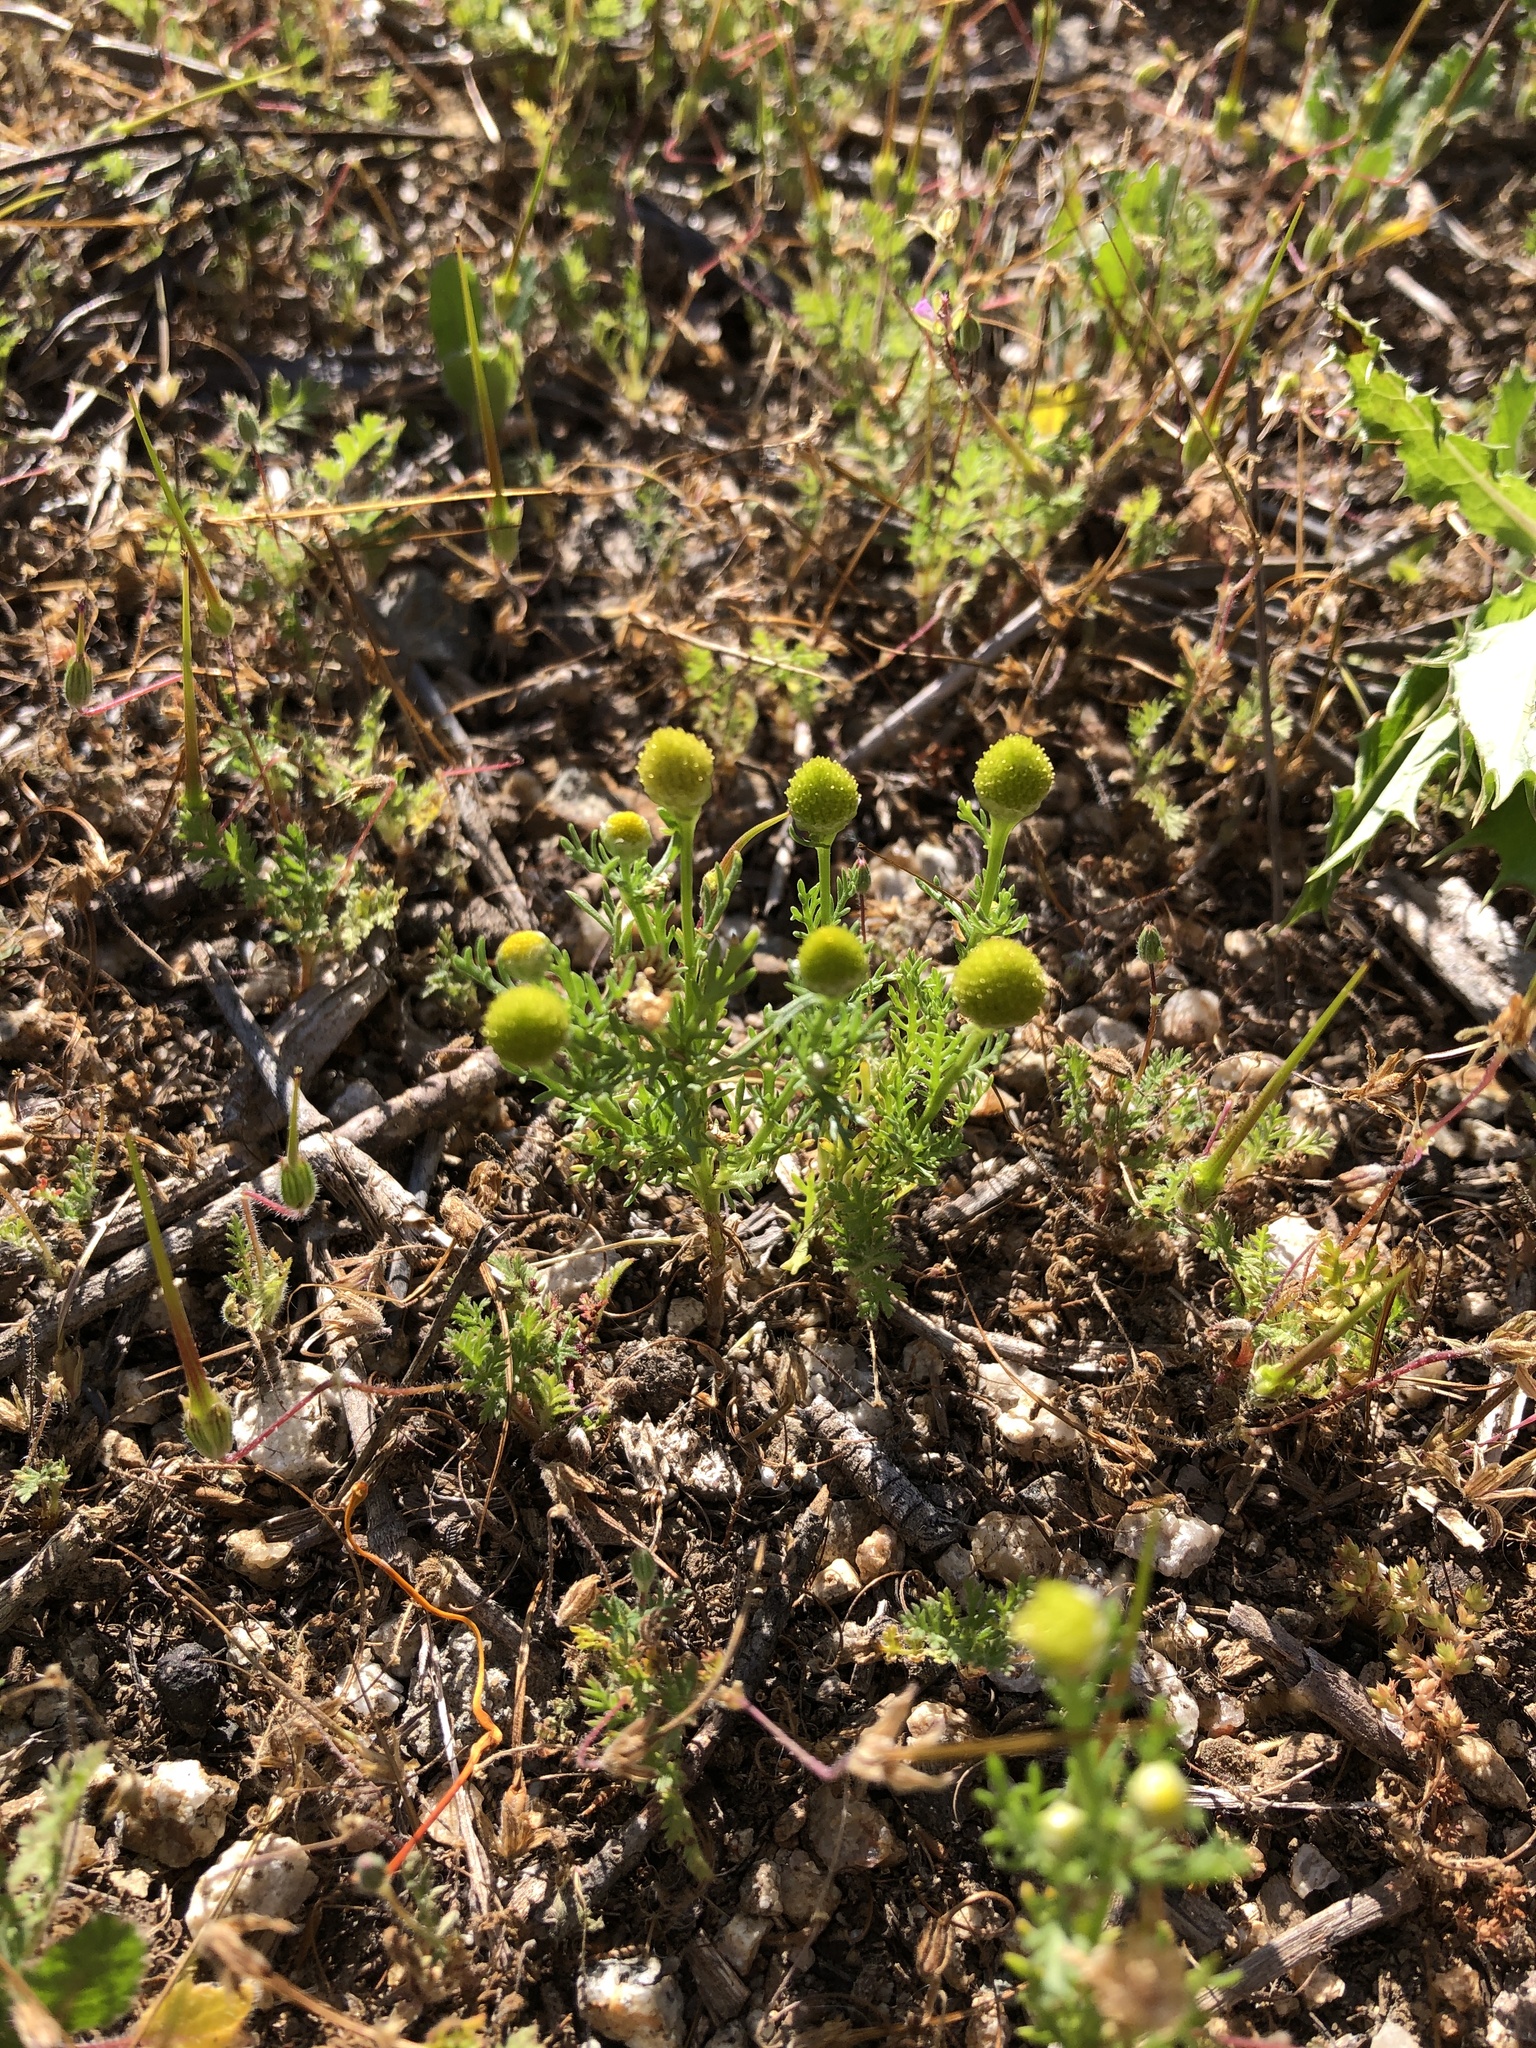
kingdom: Plantae
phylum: Tracheophyta
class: Magnoliopsida
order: Asterales
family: Asteraceae
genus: Matricaria
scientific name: Matricaria discoidea
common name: Disc mayweed
